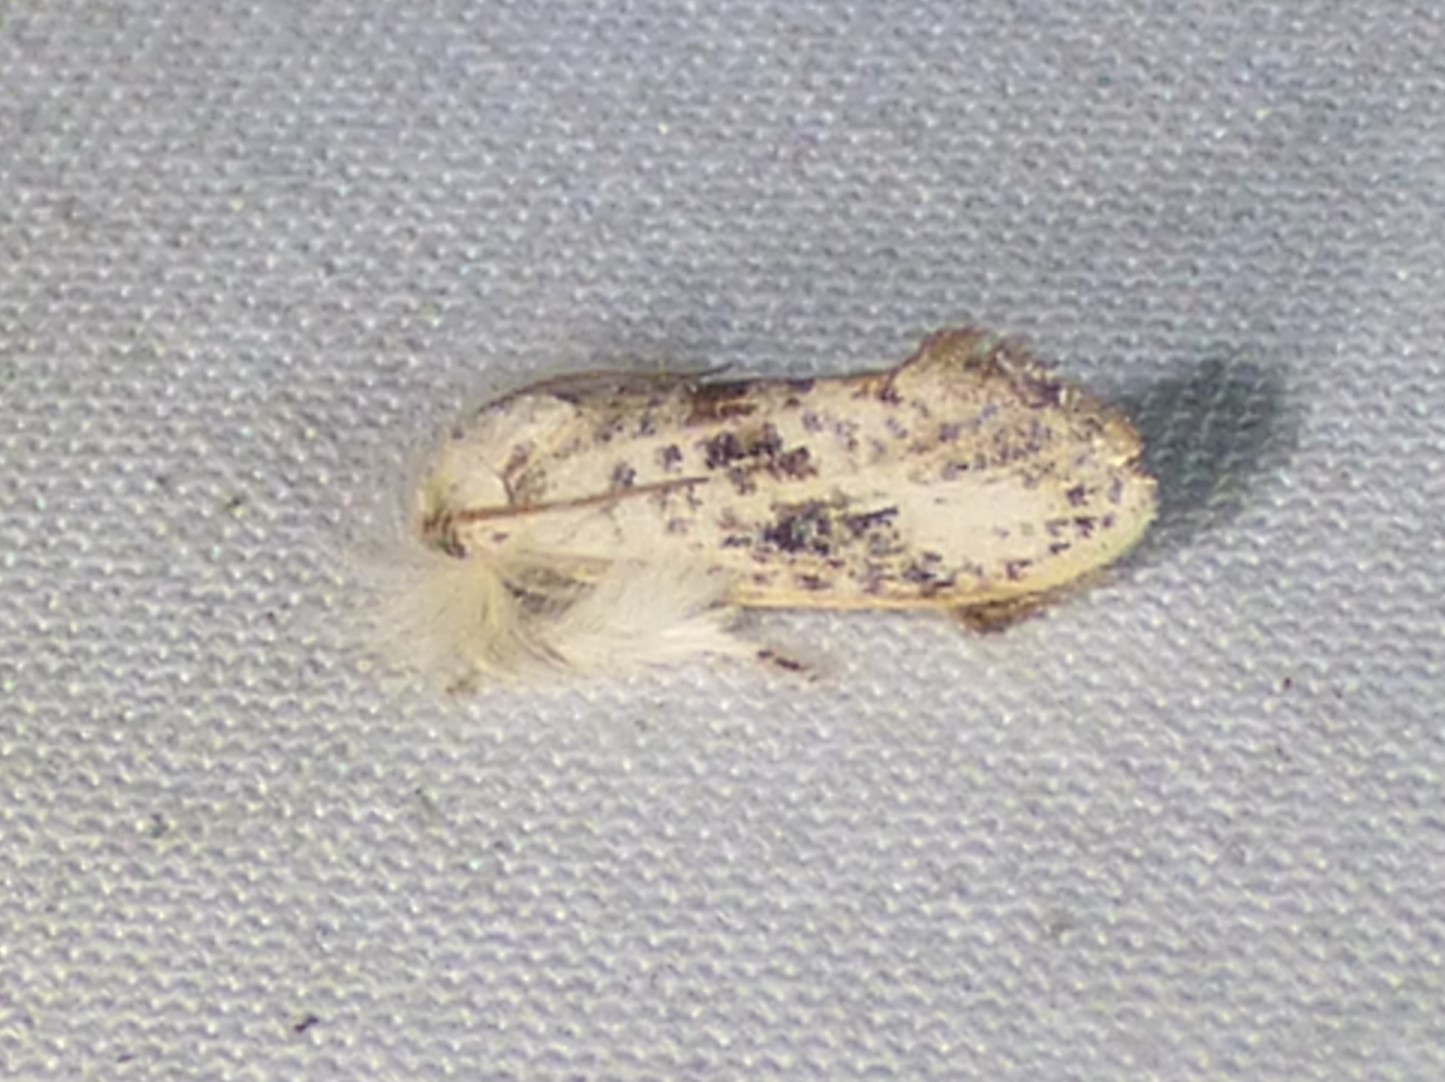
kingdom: Animalia
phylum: Arthropoda
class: Insecta
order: Lepidoptera
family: Tineidae
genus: Acrolophus
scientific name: Acrolophus mycetophagus
